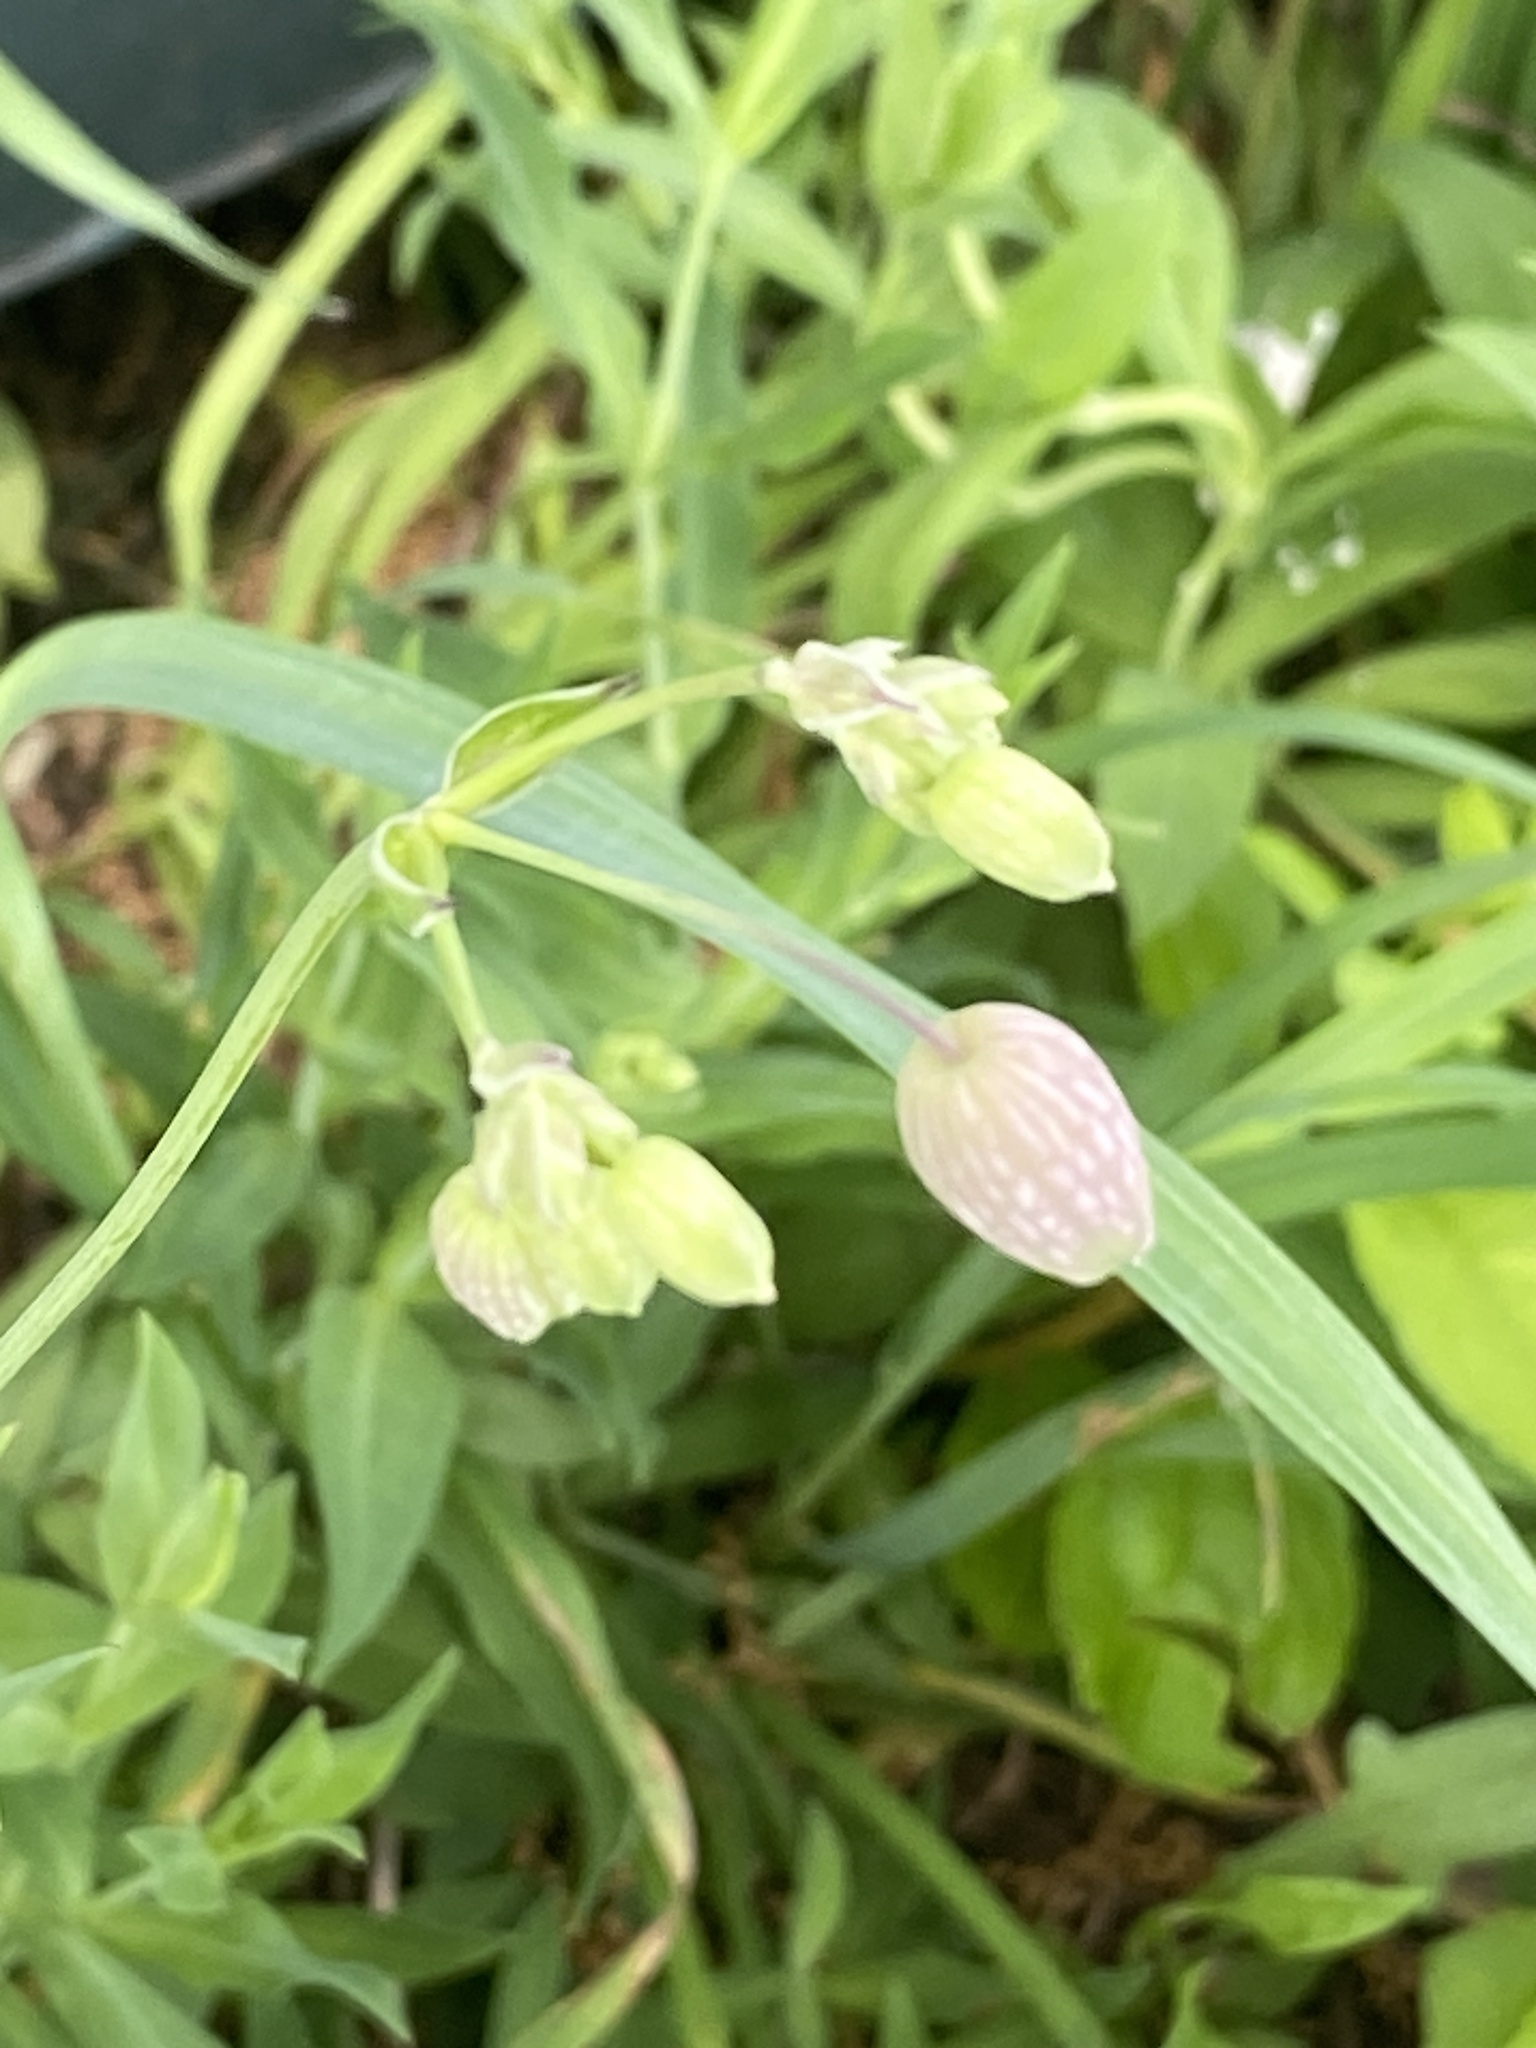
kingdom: Plantae
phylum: Tracheophyta
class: Magnoliopsida
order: Caryophyllales
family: Caryophyllaceae
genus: Silene
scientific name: Silene vulgaris
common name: Bladder campion
